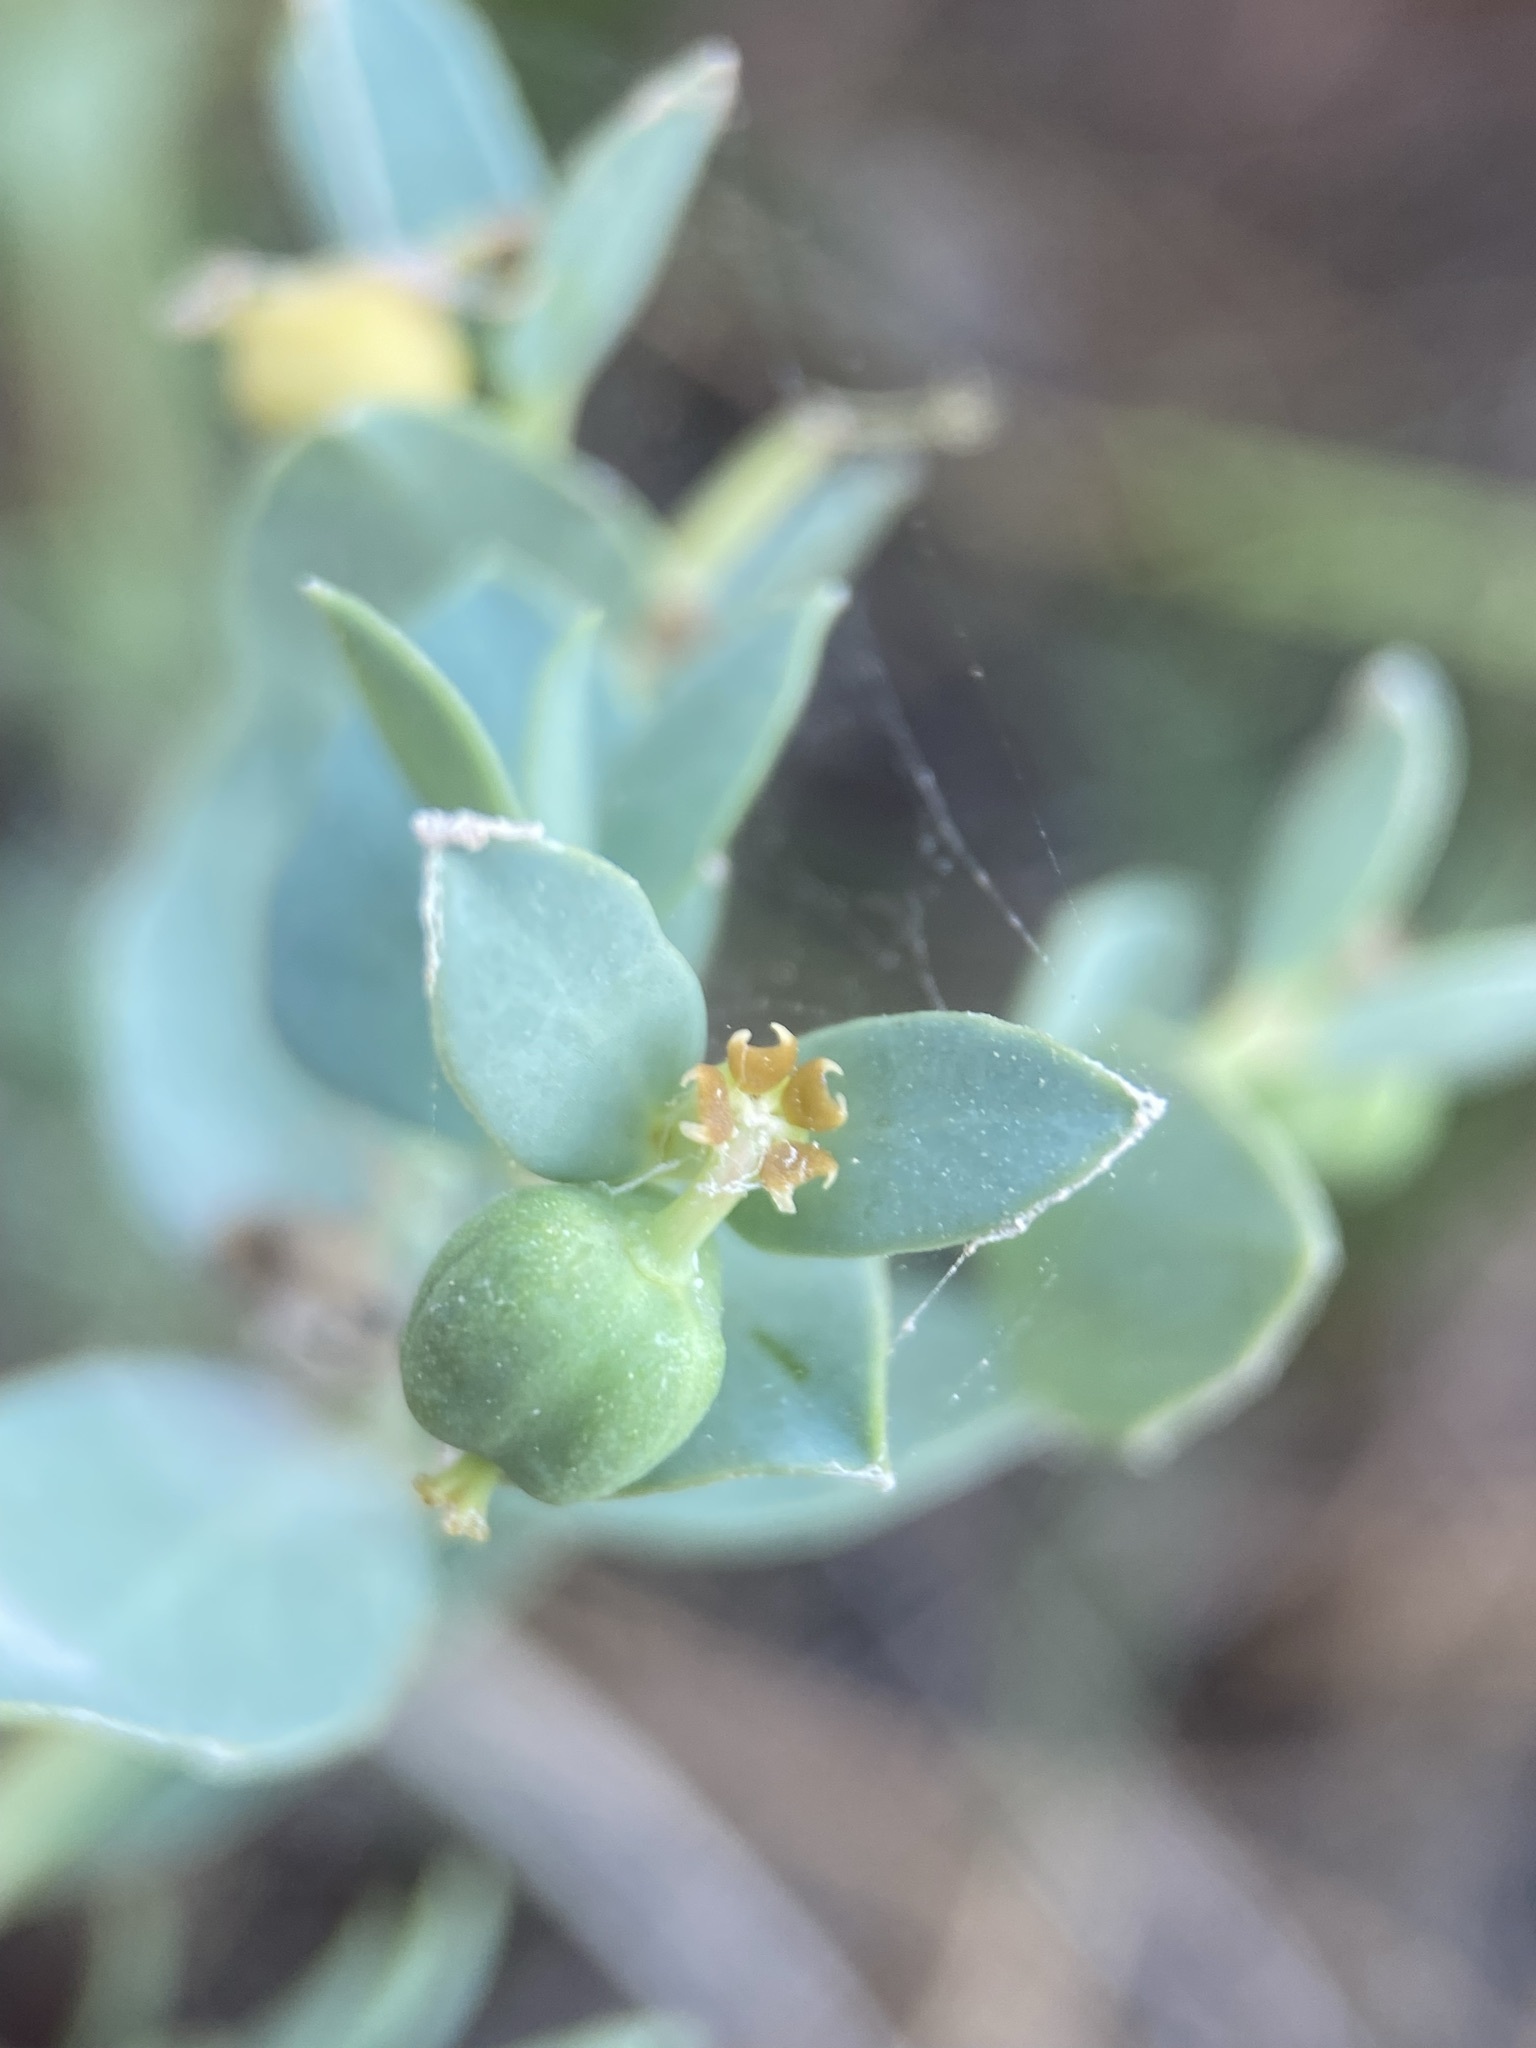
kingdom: Plantae
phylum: Tracheophyta
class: Magnoliopsida
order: Malpighiales
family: Euphorbiaceae
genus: Euphorbia
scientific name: Euphorbia brachycera
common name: Shorthorn spurge
